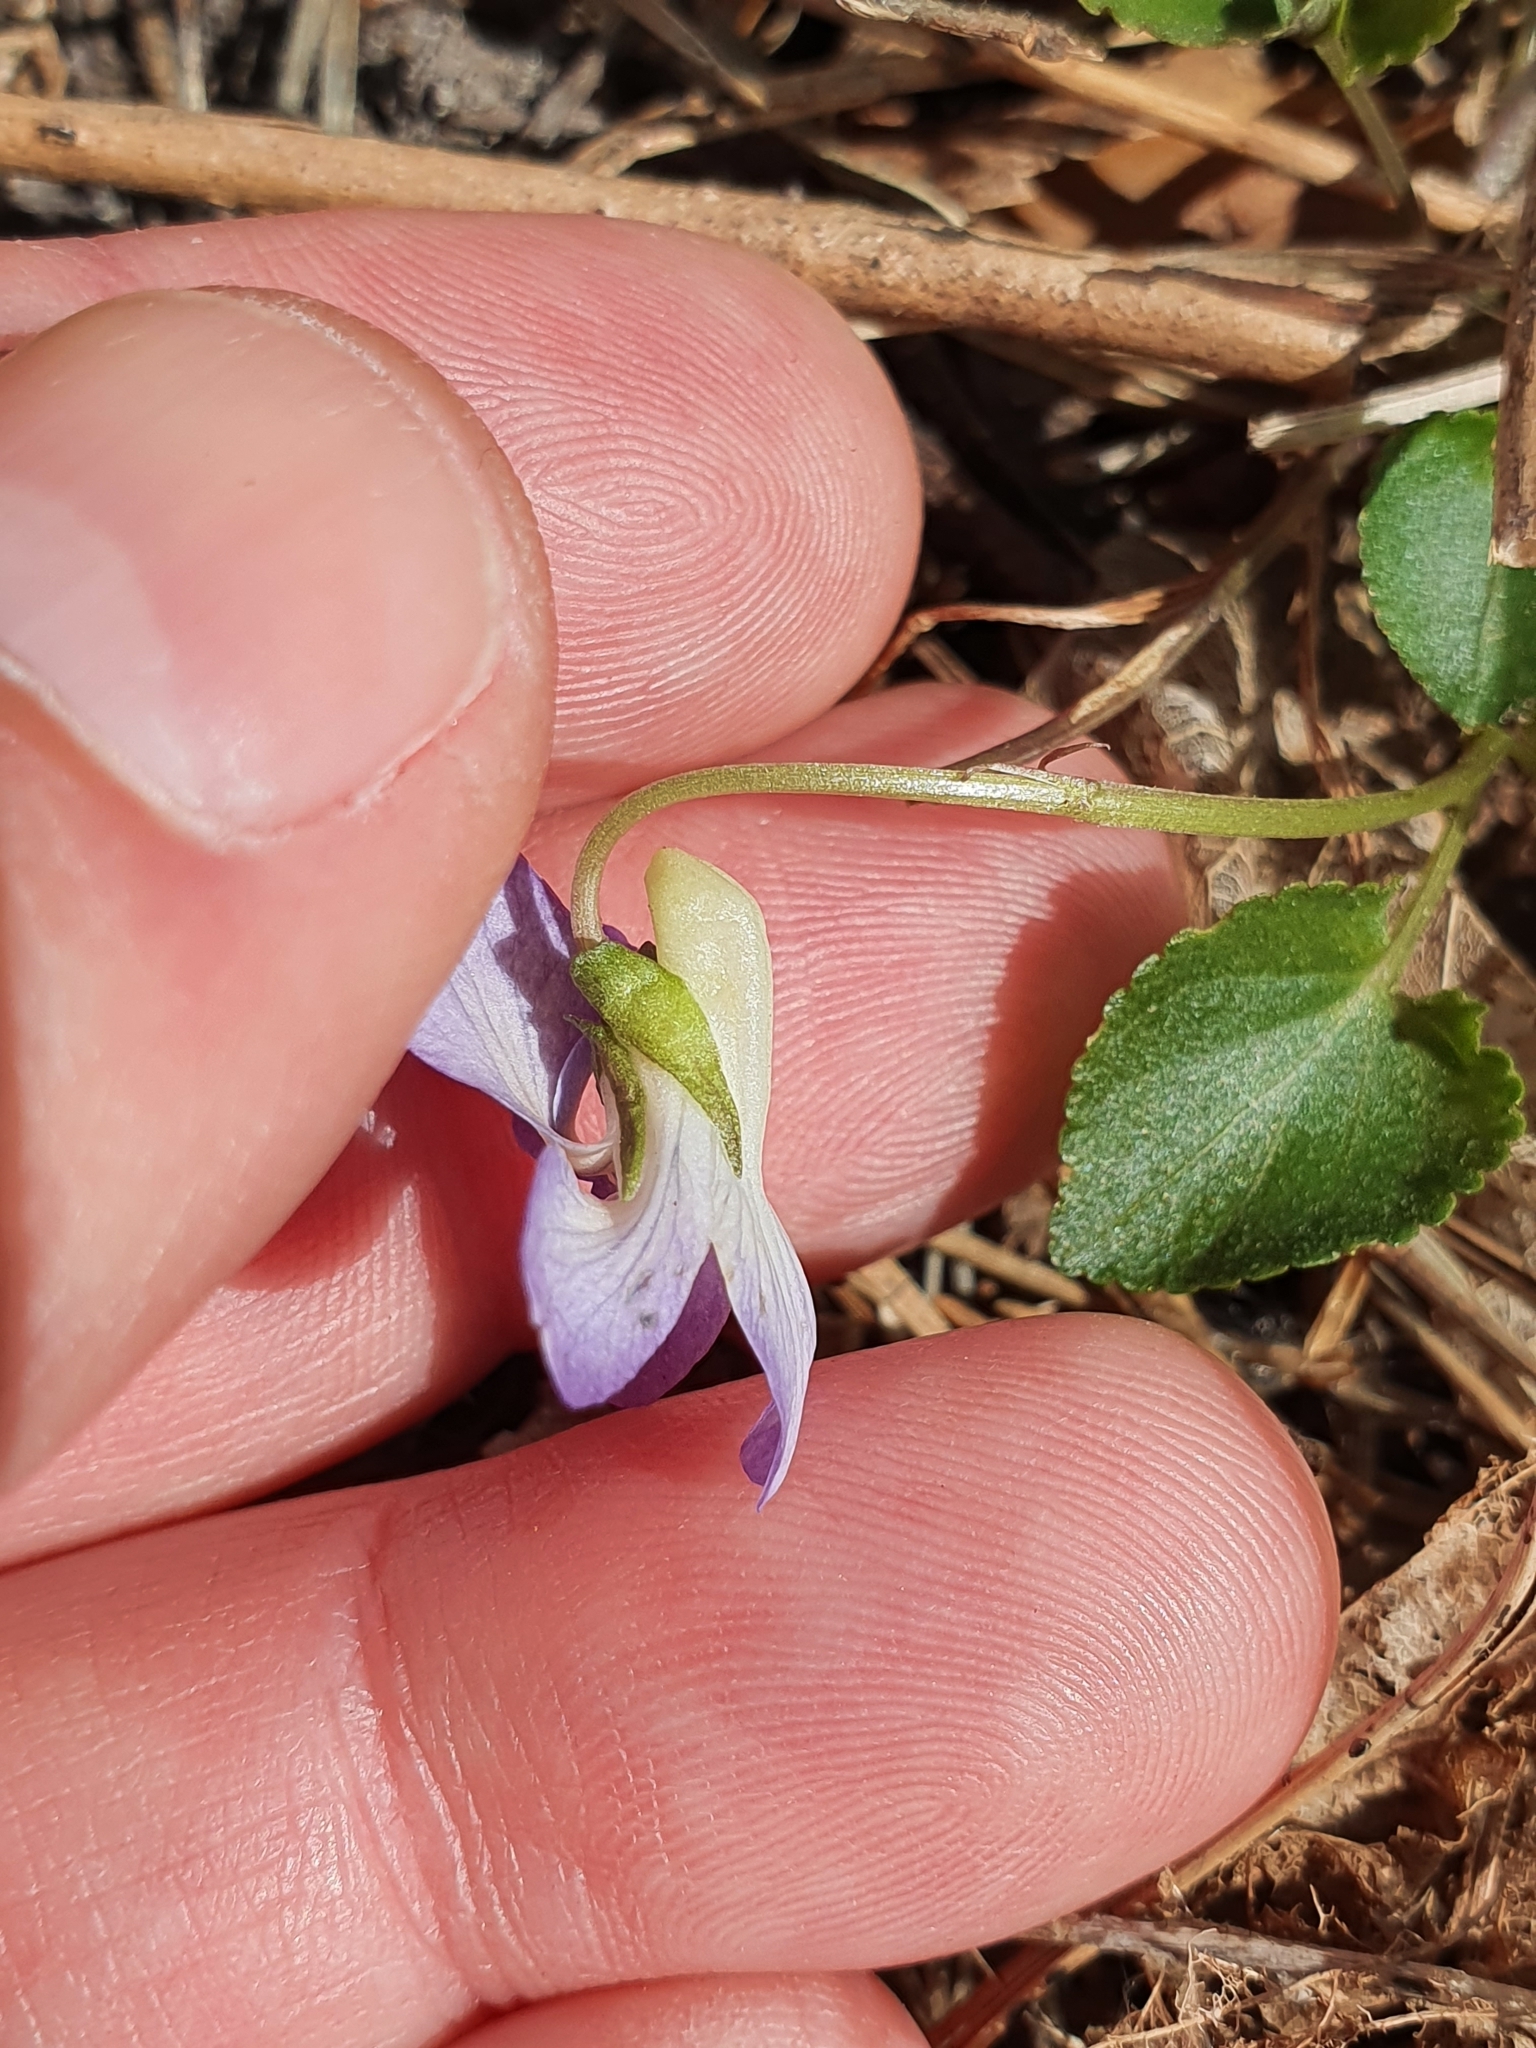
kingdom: Plantae
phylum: Tracheophyta
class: Magnoliopsida
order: Malpighiales
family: Violaceae
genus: Viola
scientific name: Viola riviniana
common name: Common dog-violet
